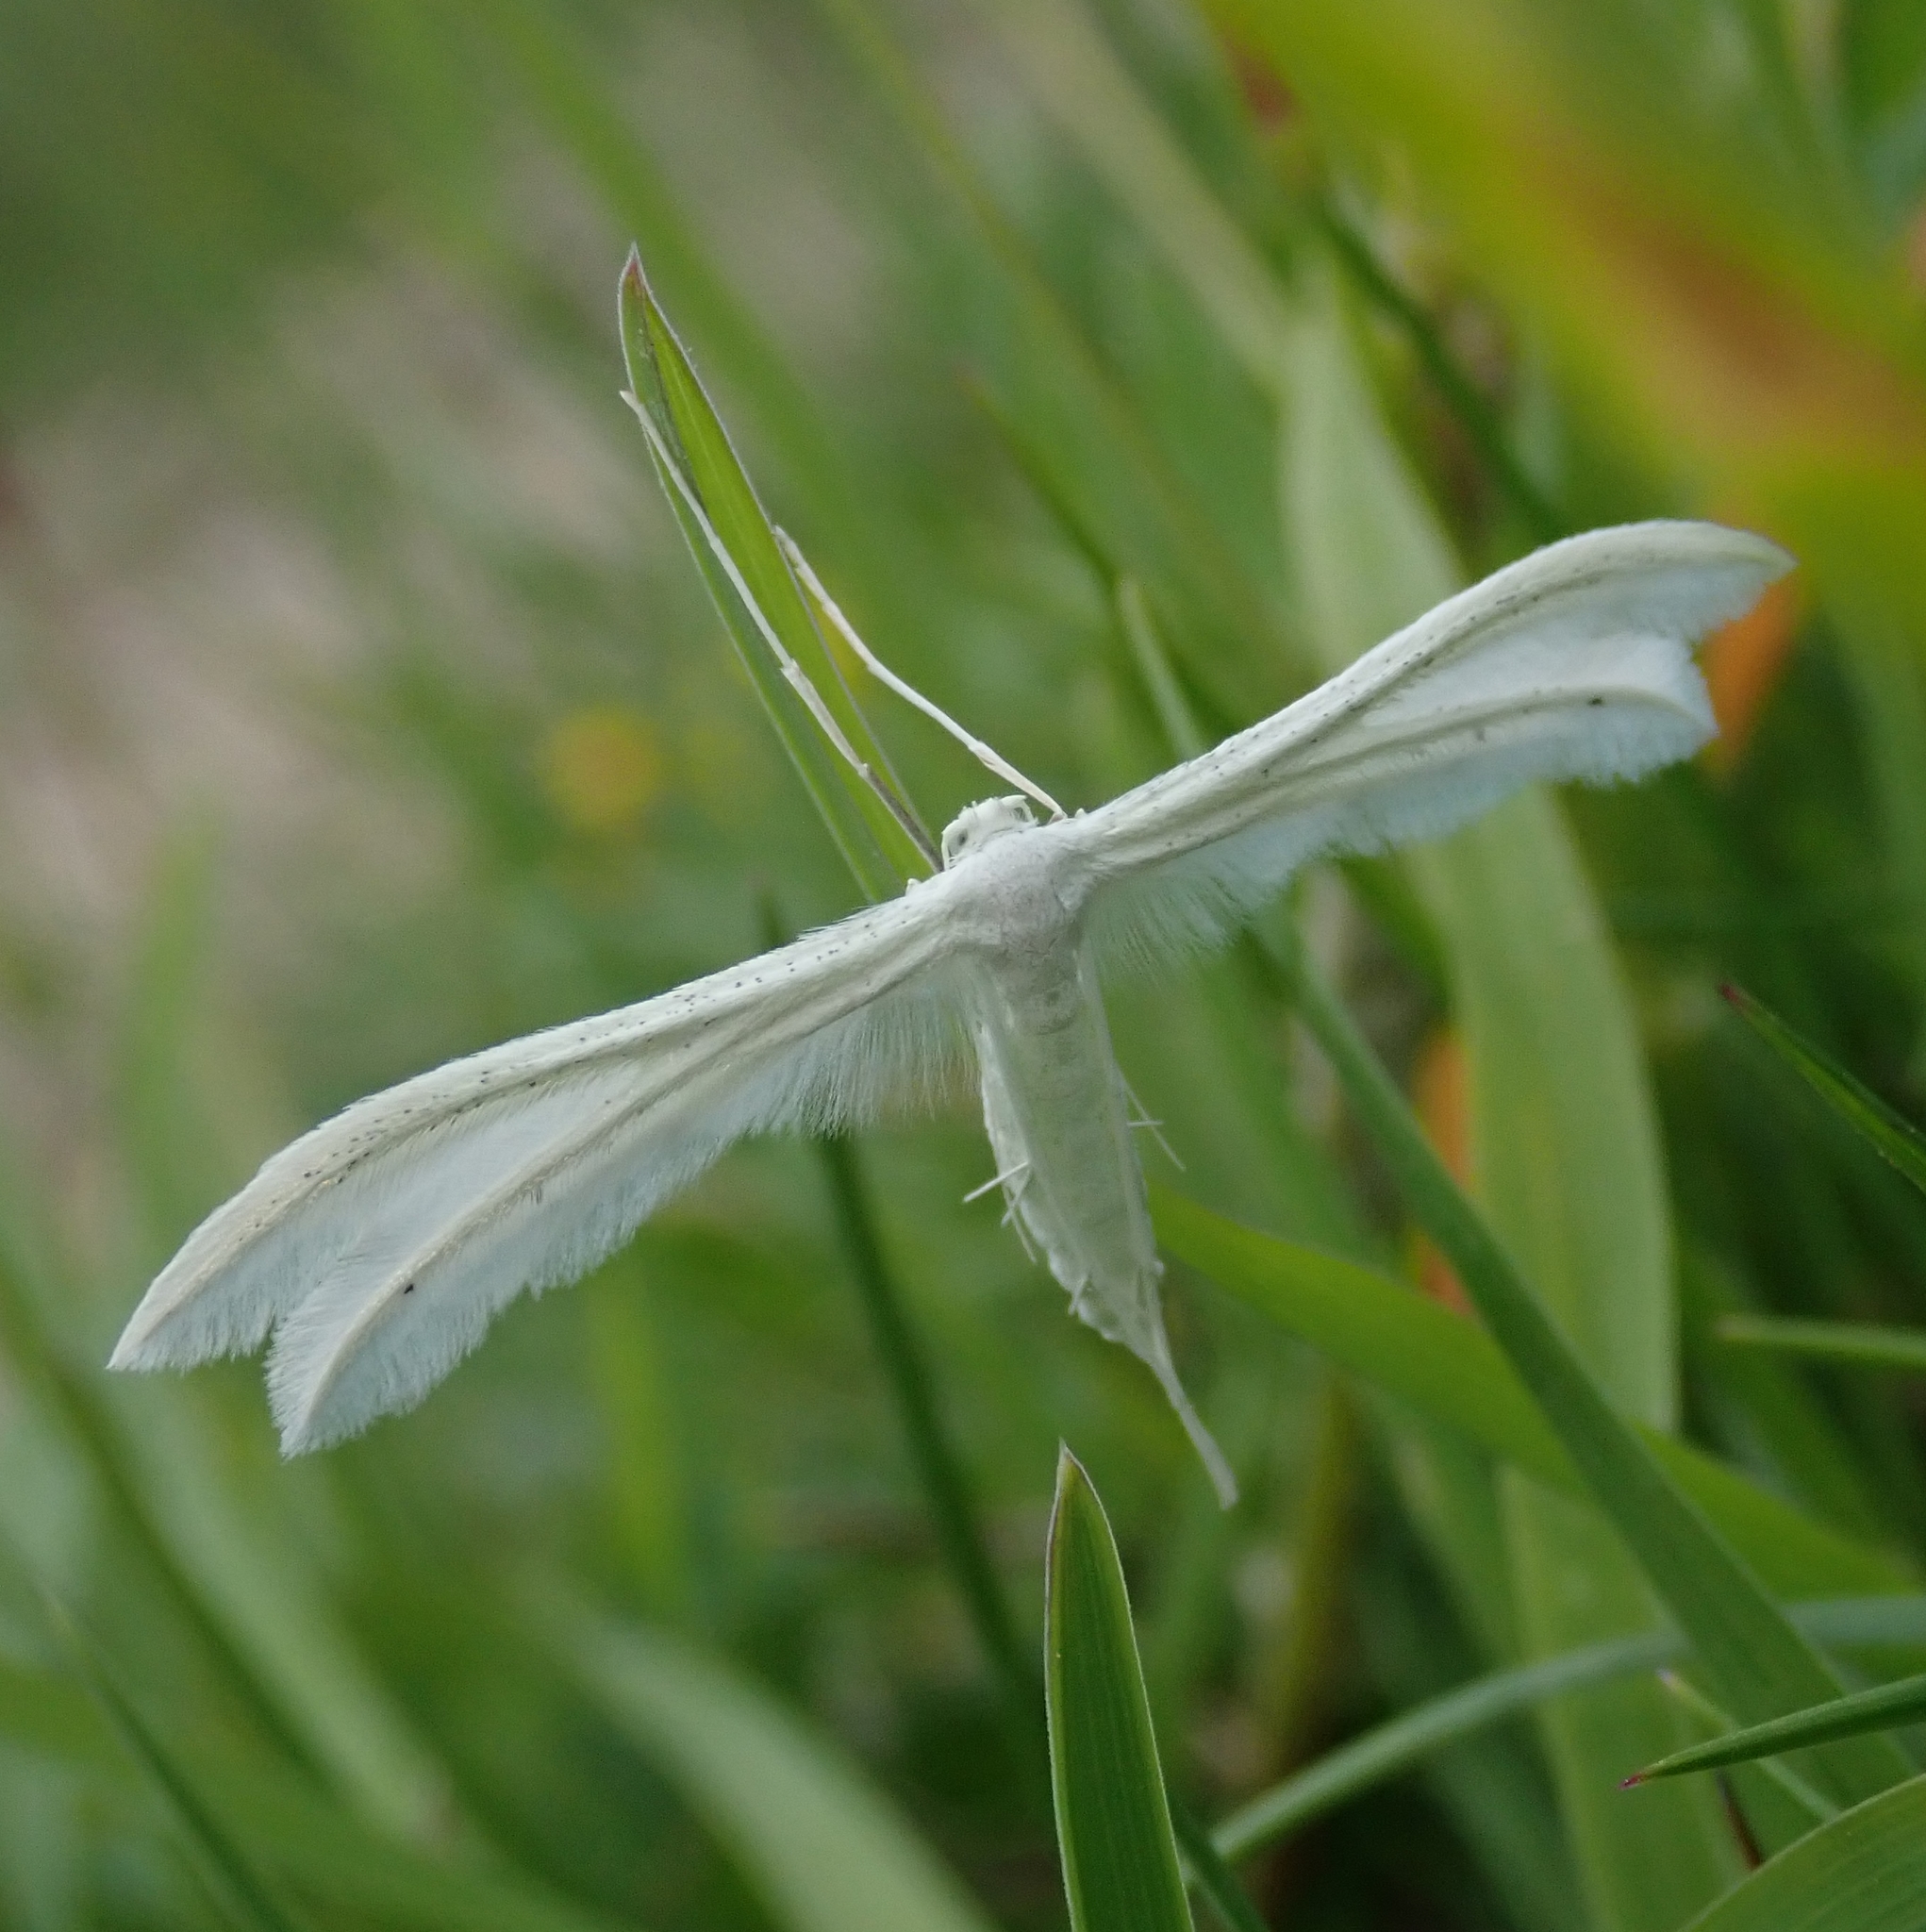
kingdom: Animalia
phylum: Arthropoda
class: Insecta
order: Lepidoptera
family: Pterophoridae
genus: Pterophorus
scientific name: Pterophorus pentadactyla
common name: White plume moth
